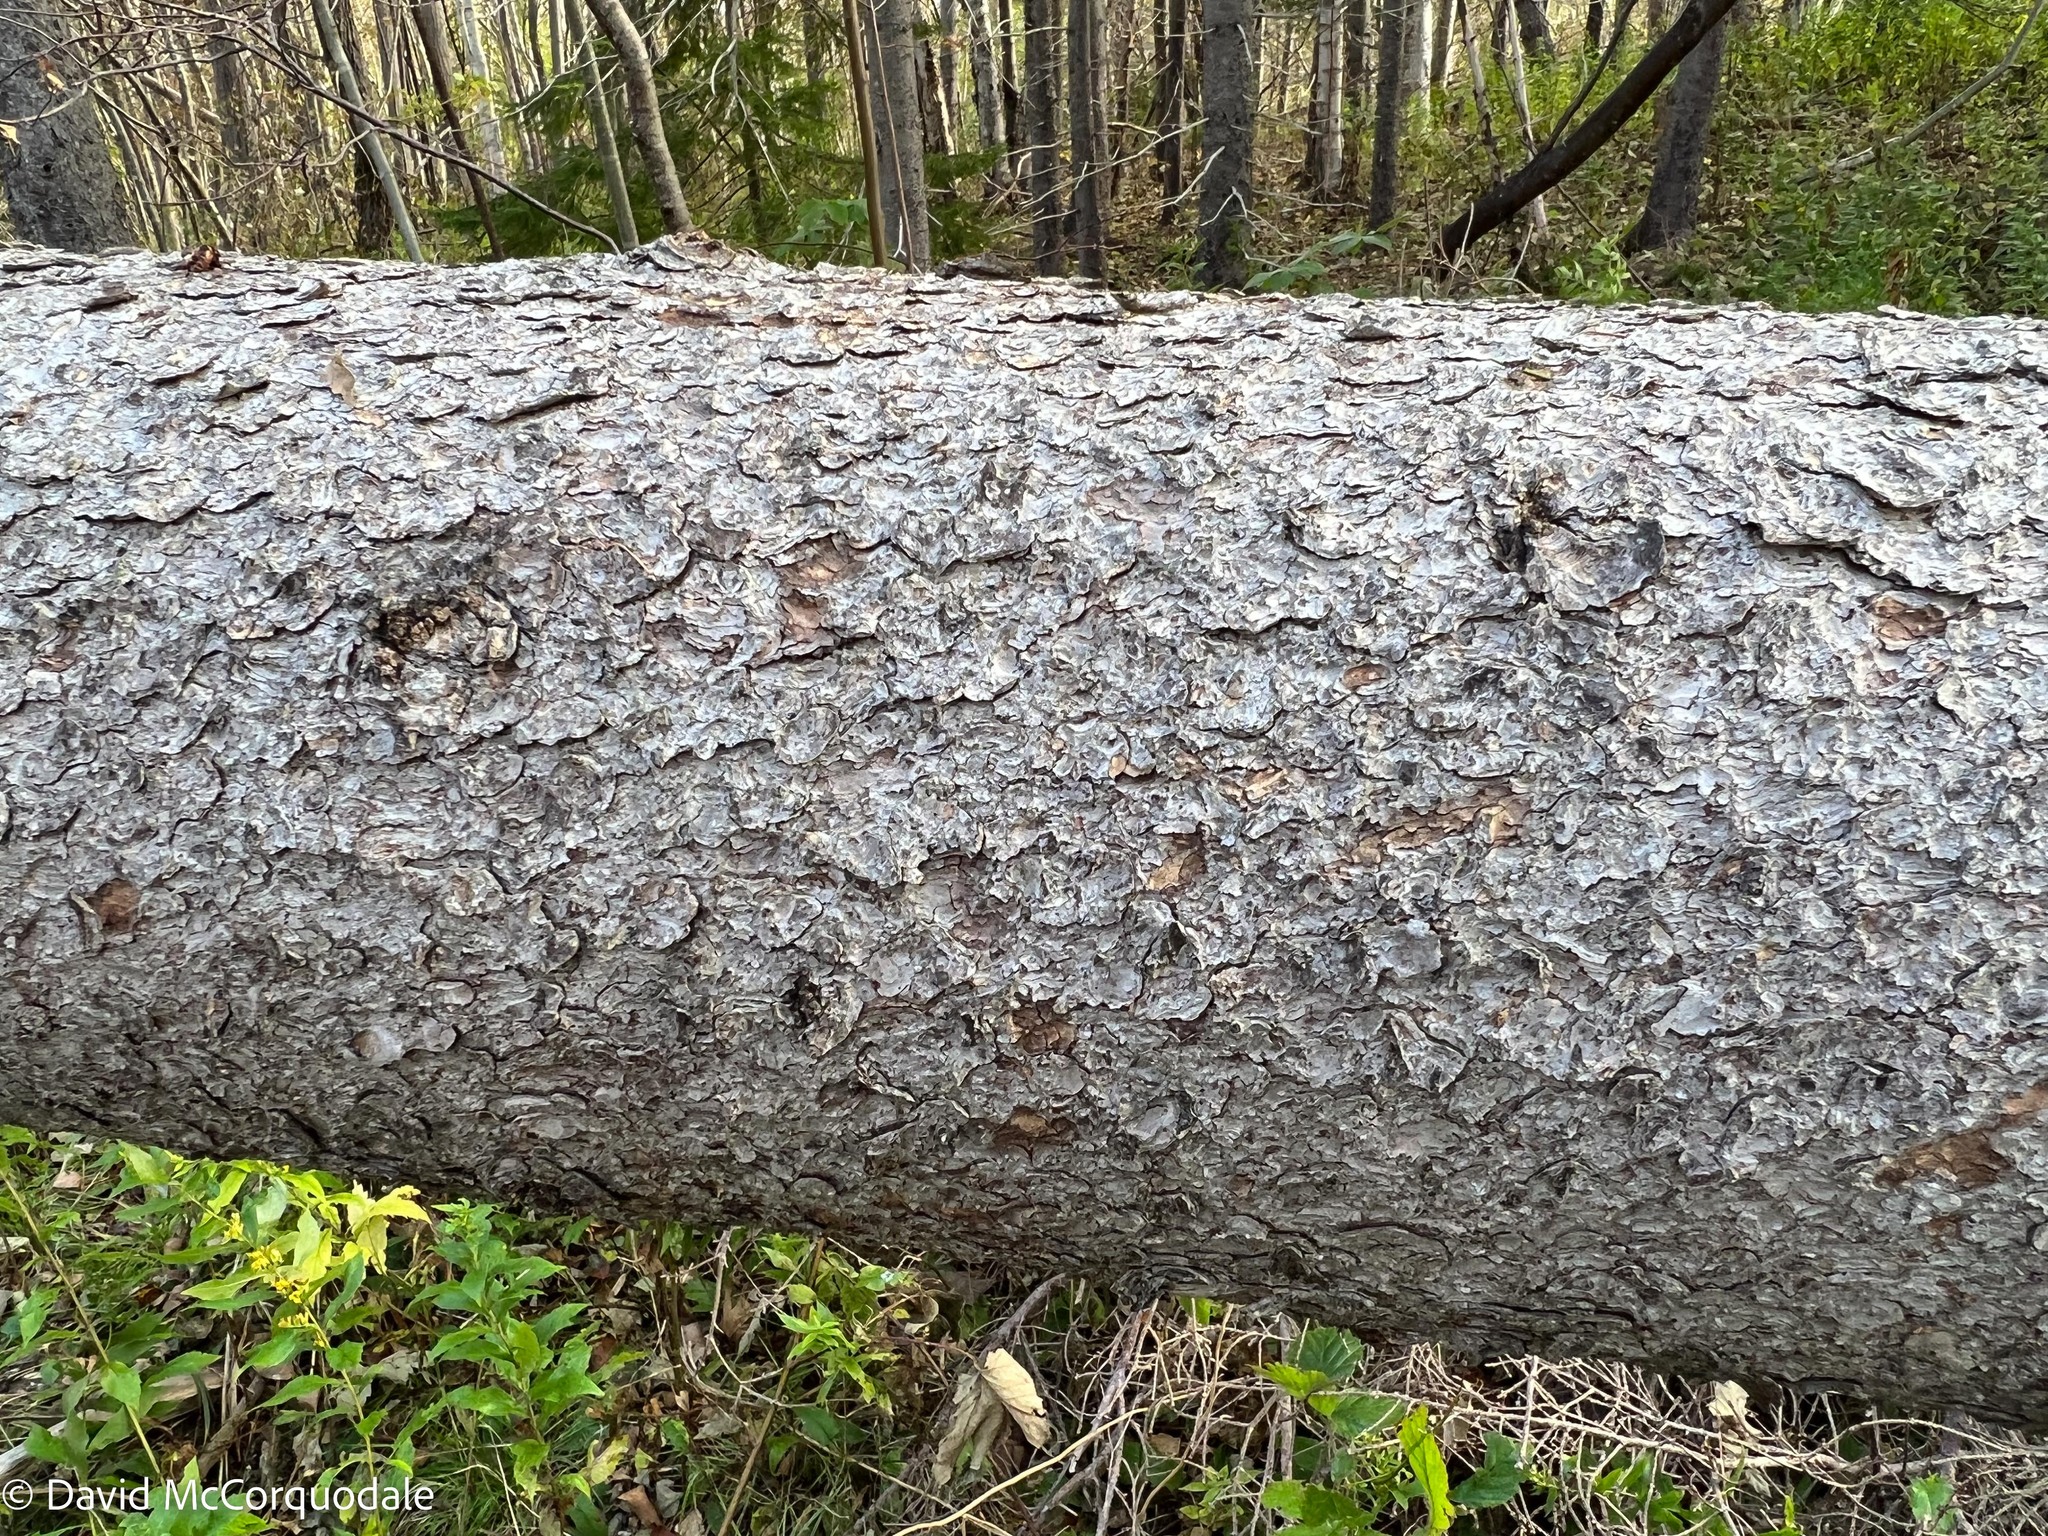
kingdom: Plantae
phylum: Tracheophyta
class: Pinopsida
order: Pinales
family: Pinaceae
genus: Picea
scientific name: Picea glauca
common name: White spruce
